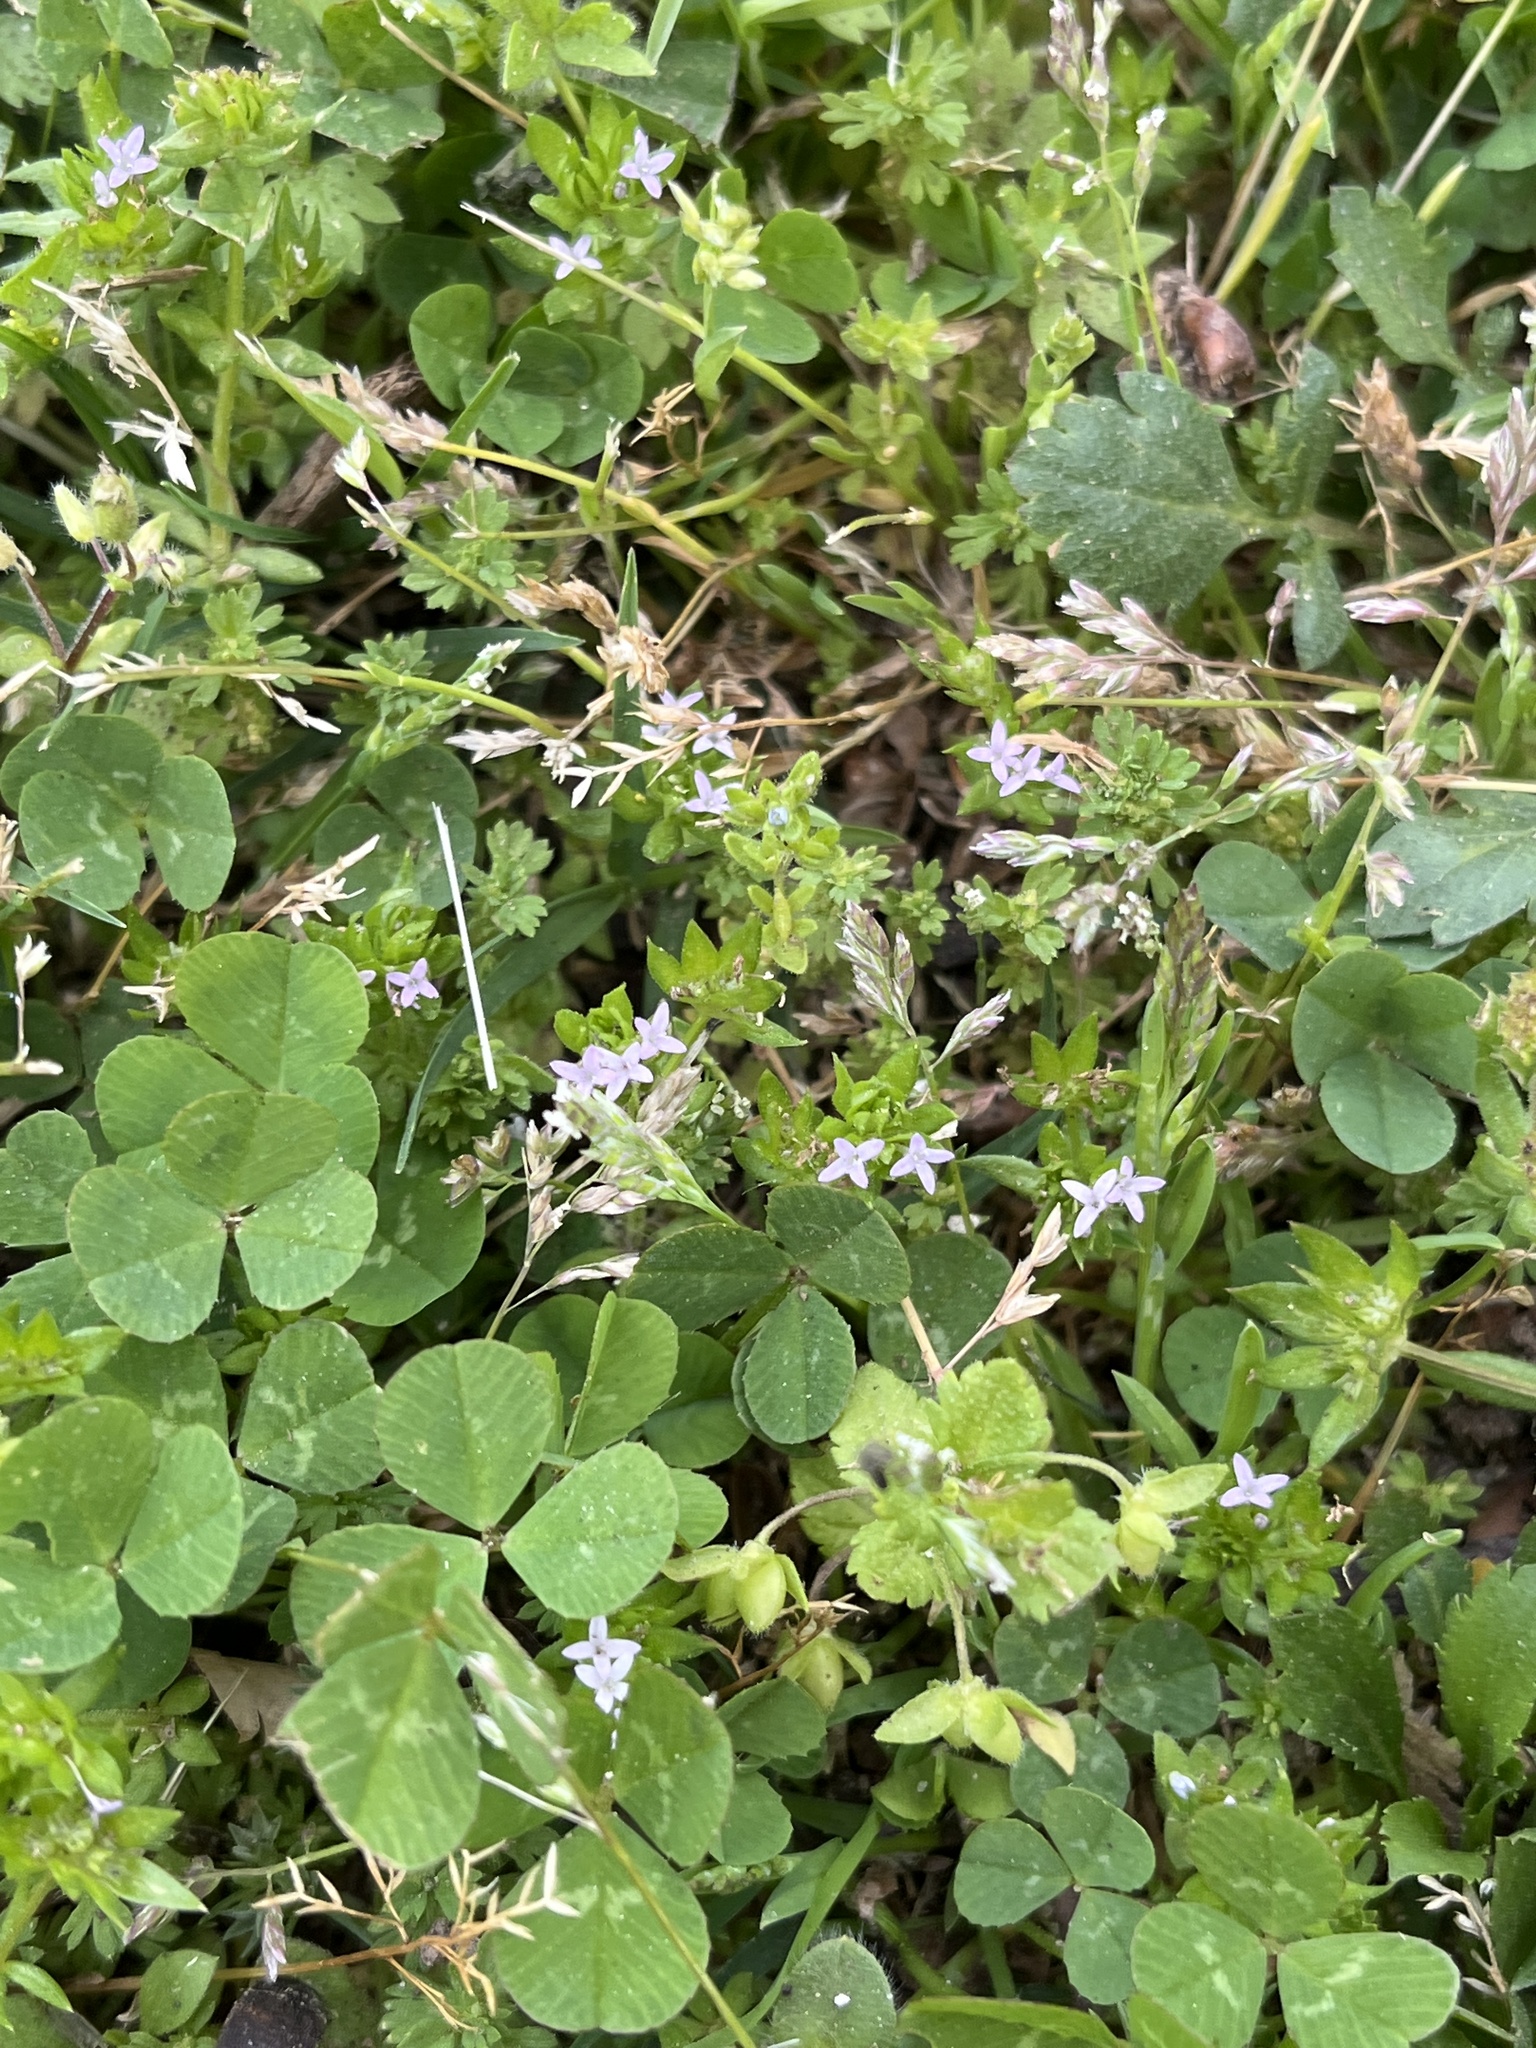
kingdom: Plantae
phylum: Tracheophyta
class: Magnoliopsida
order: Gentianales
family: Rubiaceae
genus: Sherardia
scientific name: Sherardia arvensis
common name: Field madder
